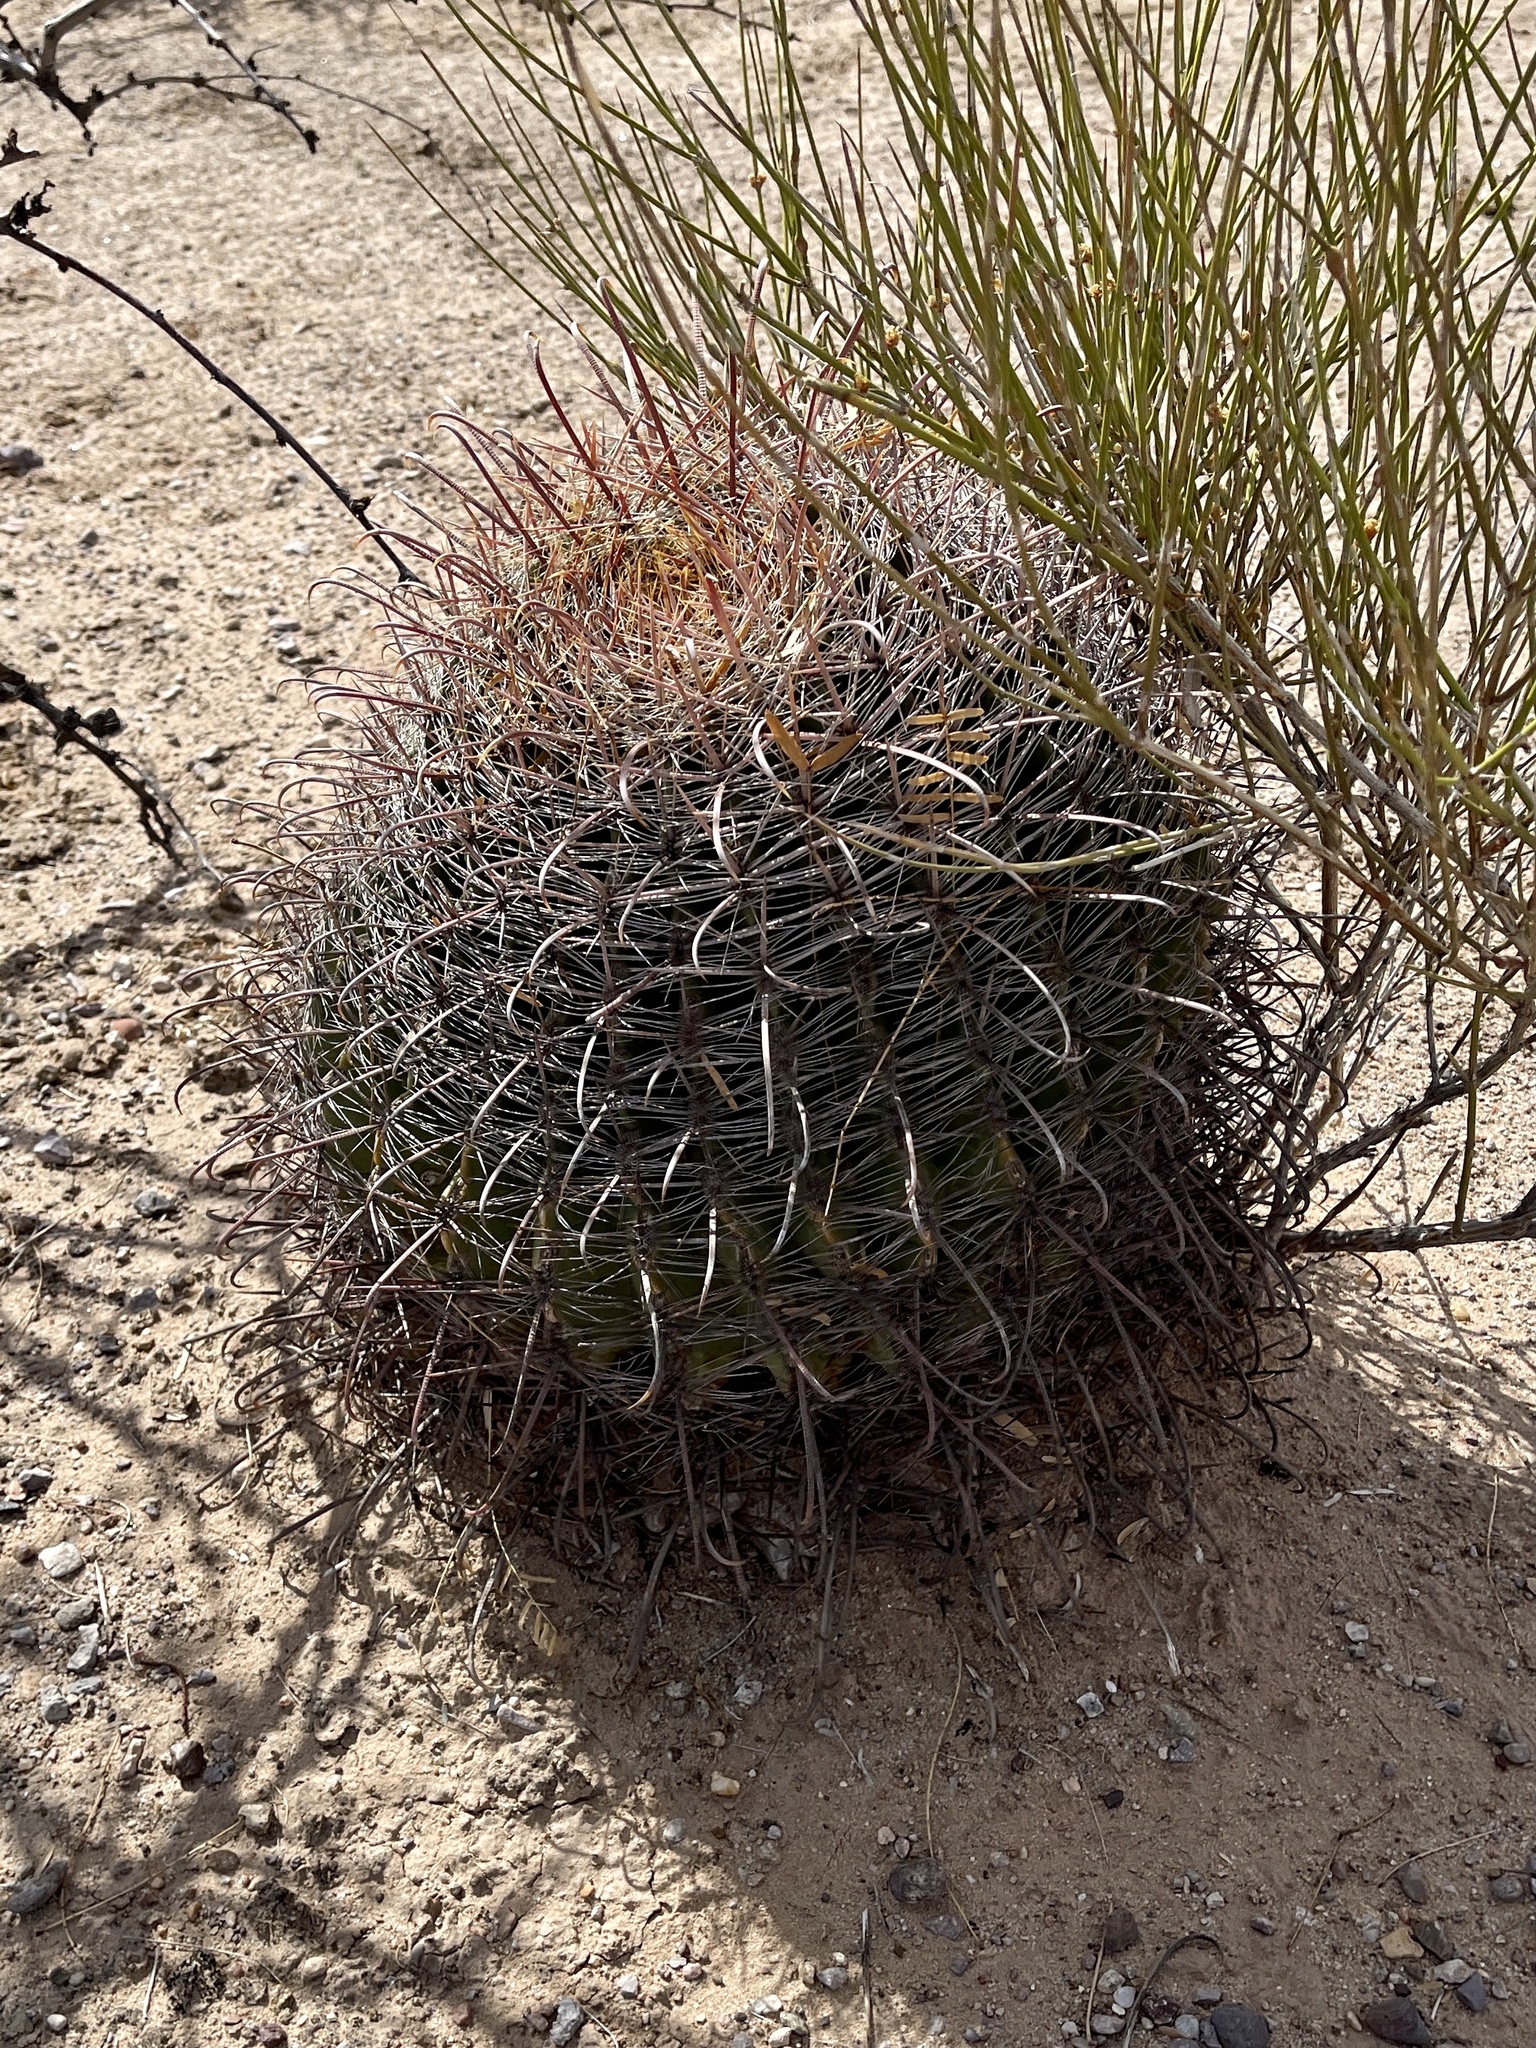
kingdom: Plantae
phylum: Tracheophyta
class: Magnoliopsida
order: Caryophyllales
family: Cactaceae
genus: Ferocactus
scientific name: Ferocactus wislizeni
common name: Candy barrel cactus
